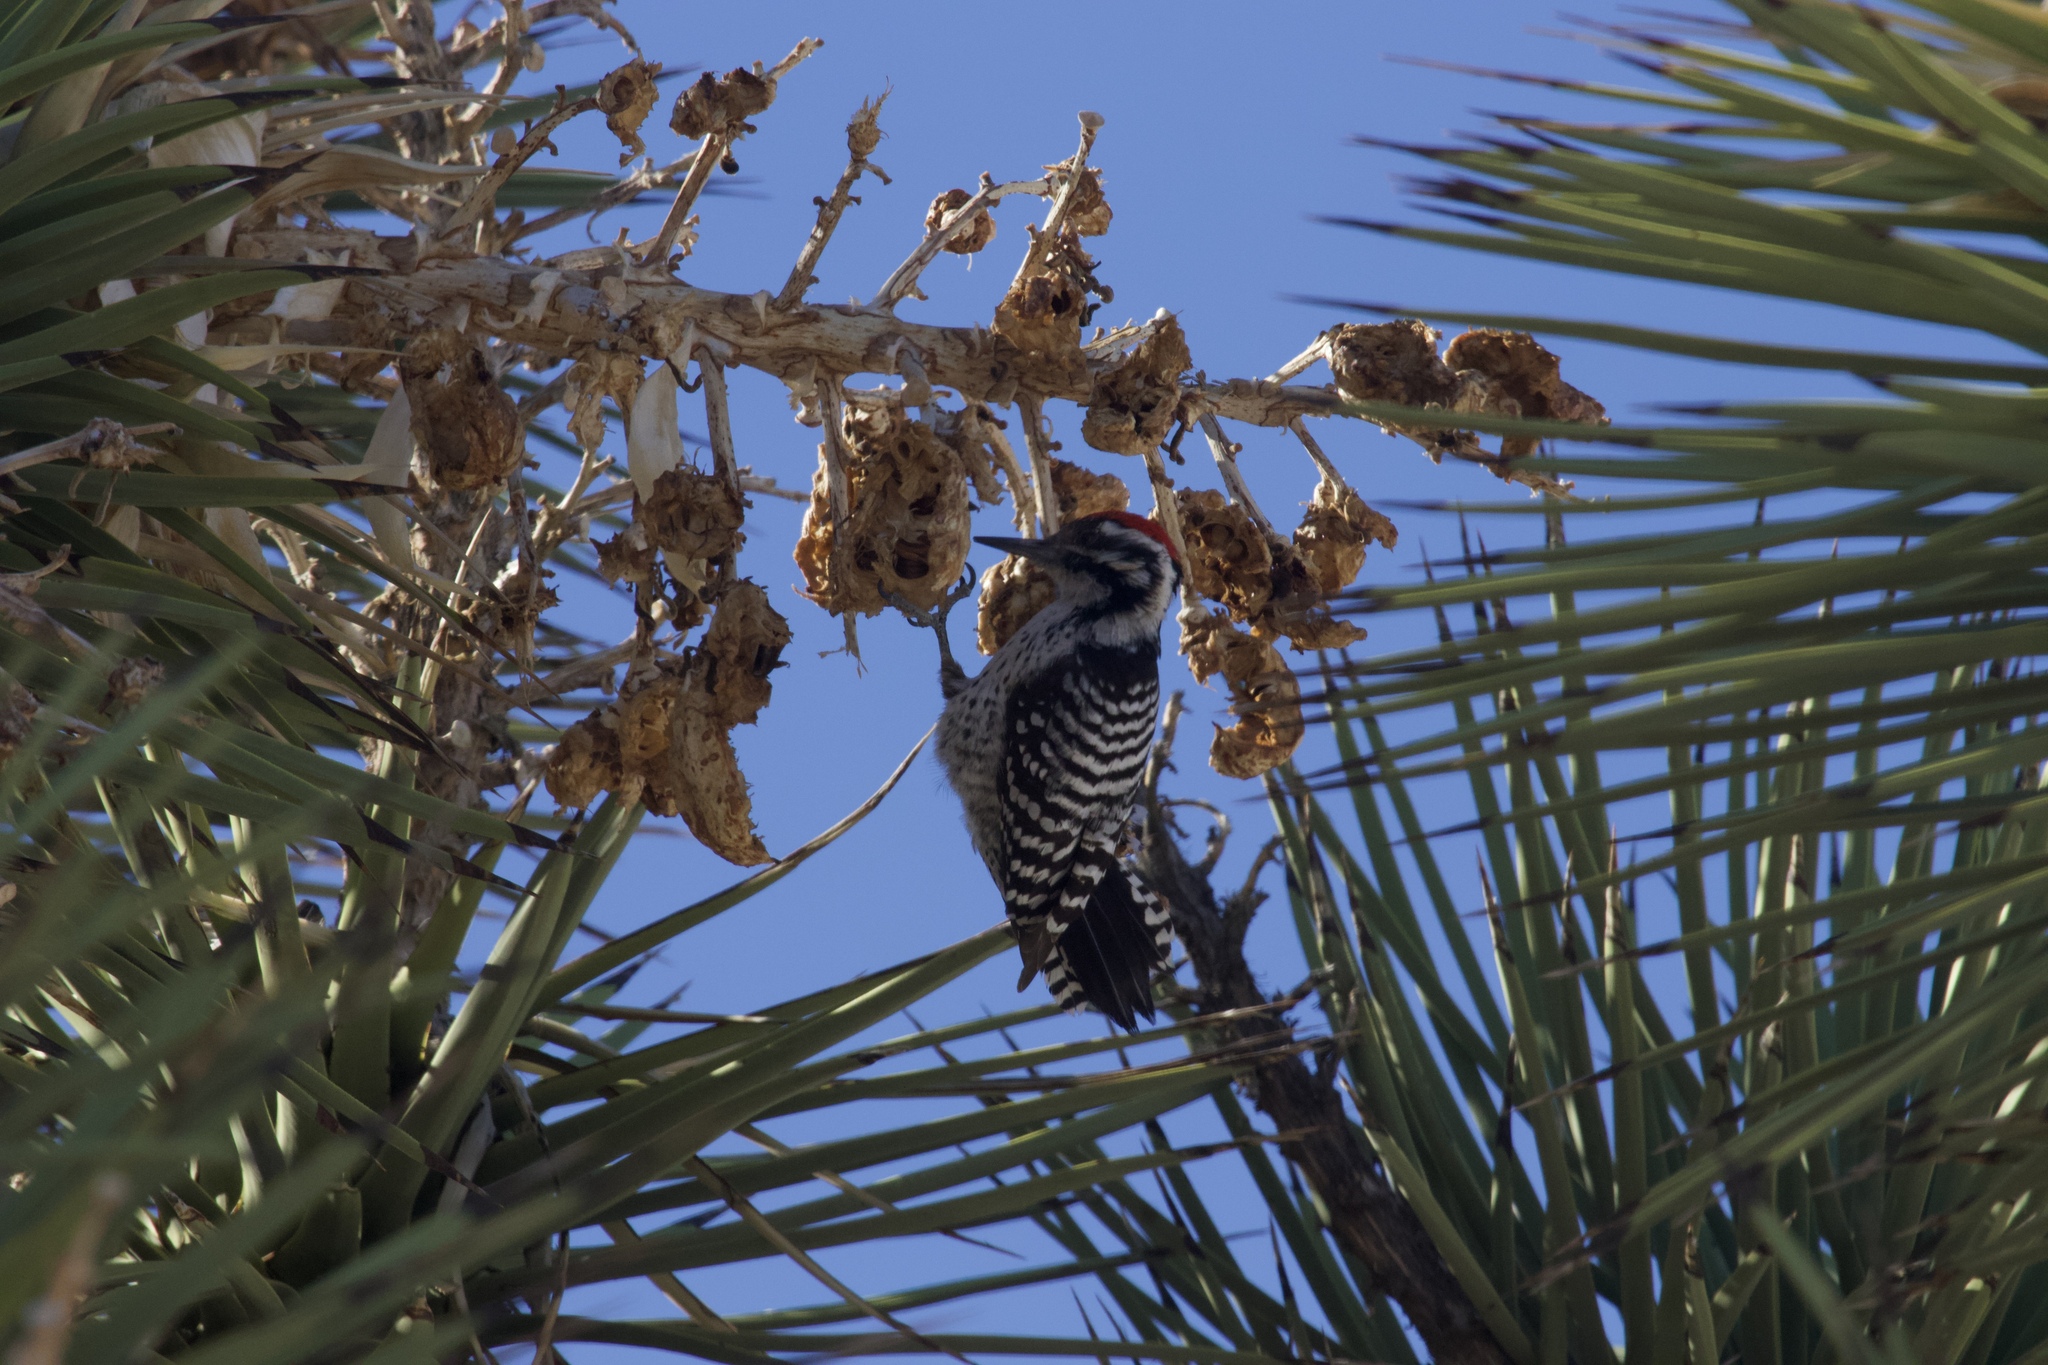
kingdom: Animalia
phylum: Chordata
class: Aves
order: Piciformes
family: Picidae
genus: Dryobates
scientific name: Dryobates scalaris
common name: Ladder-backed woodpecker
